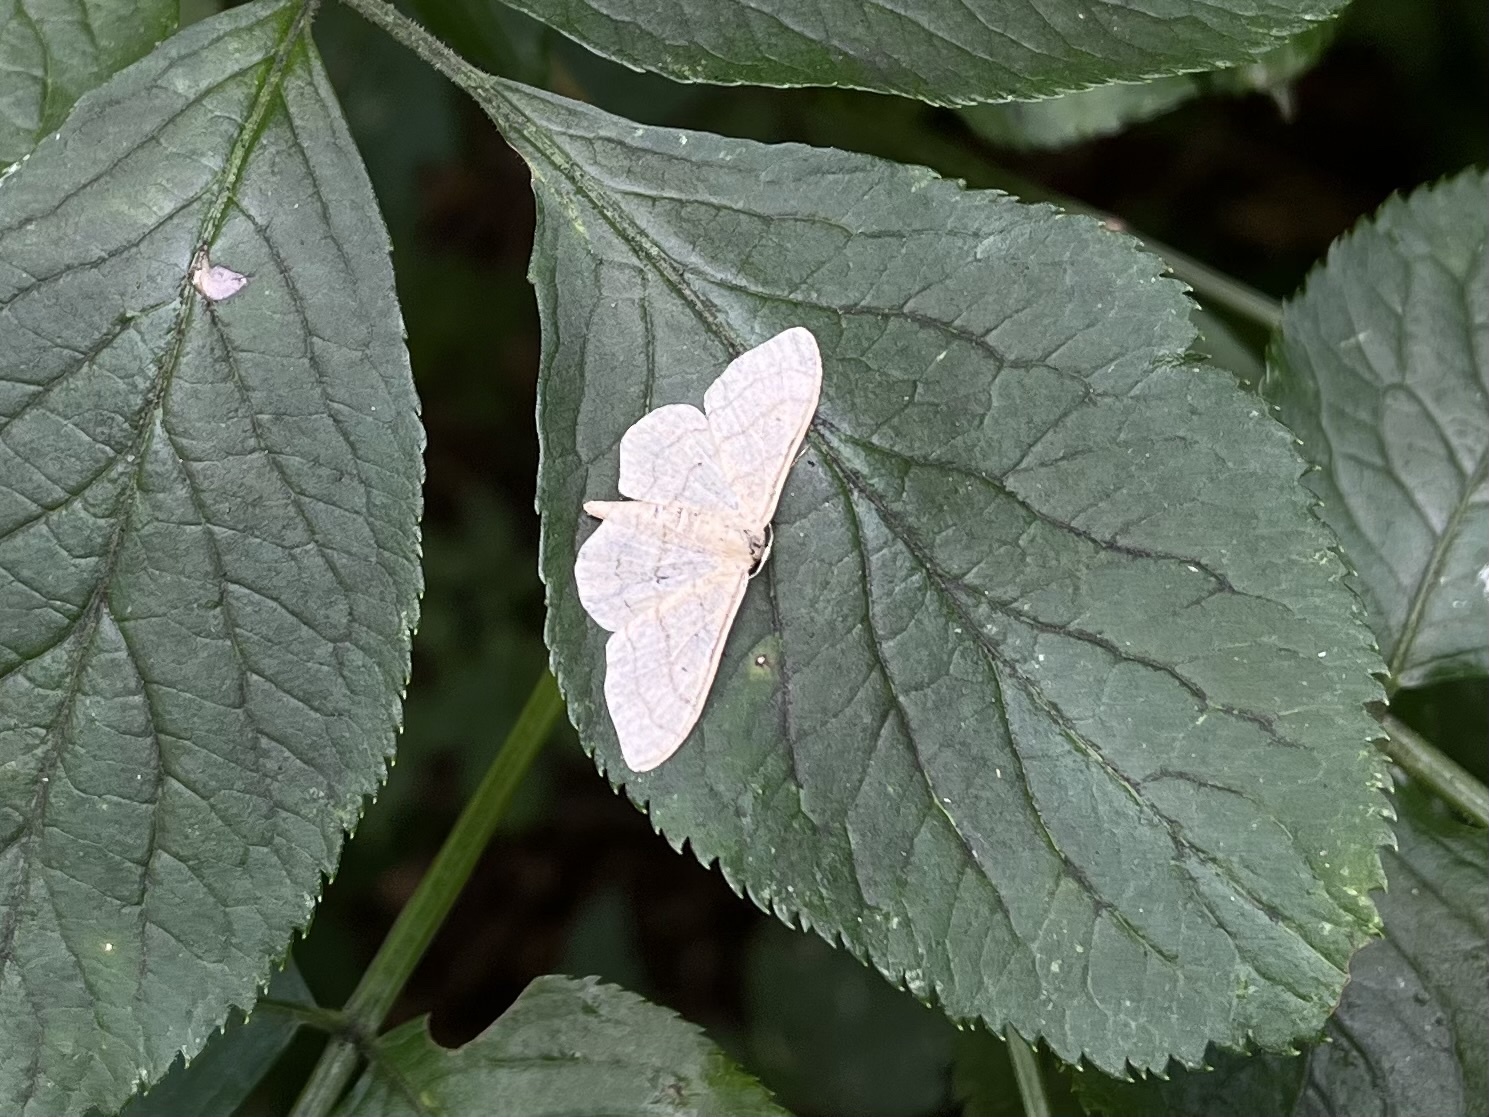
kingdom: Animalia
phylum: Arthropoda
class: Insecta
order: Lepidoptera
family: Geometridae
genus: Idaea
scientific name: Idaea aversata
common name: Riband wave
